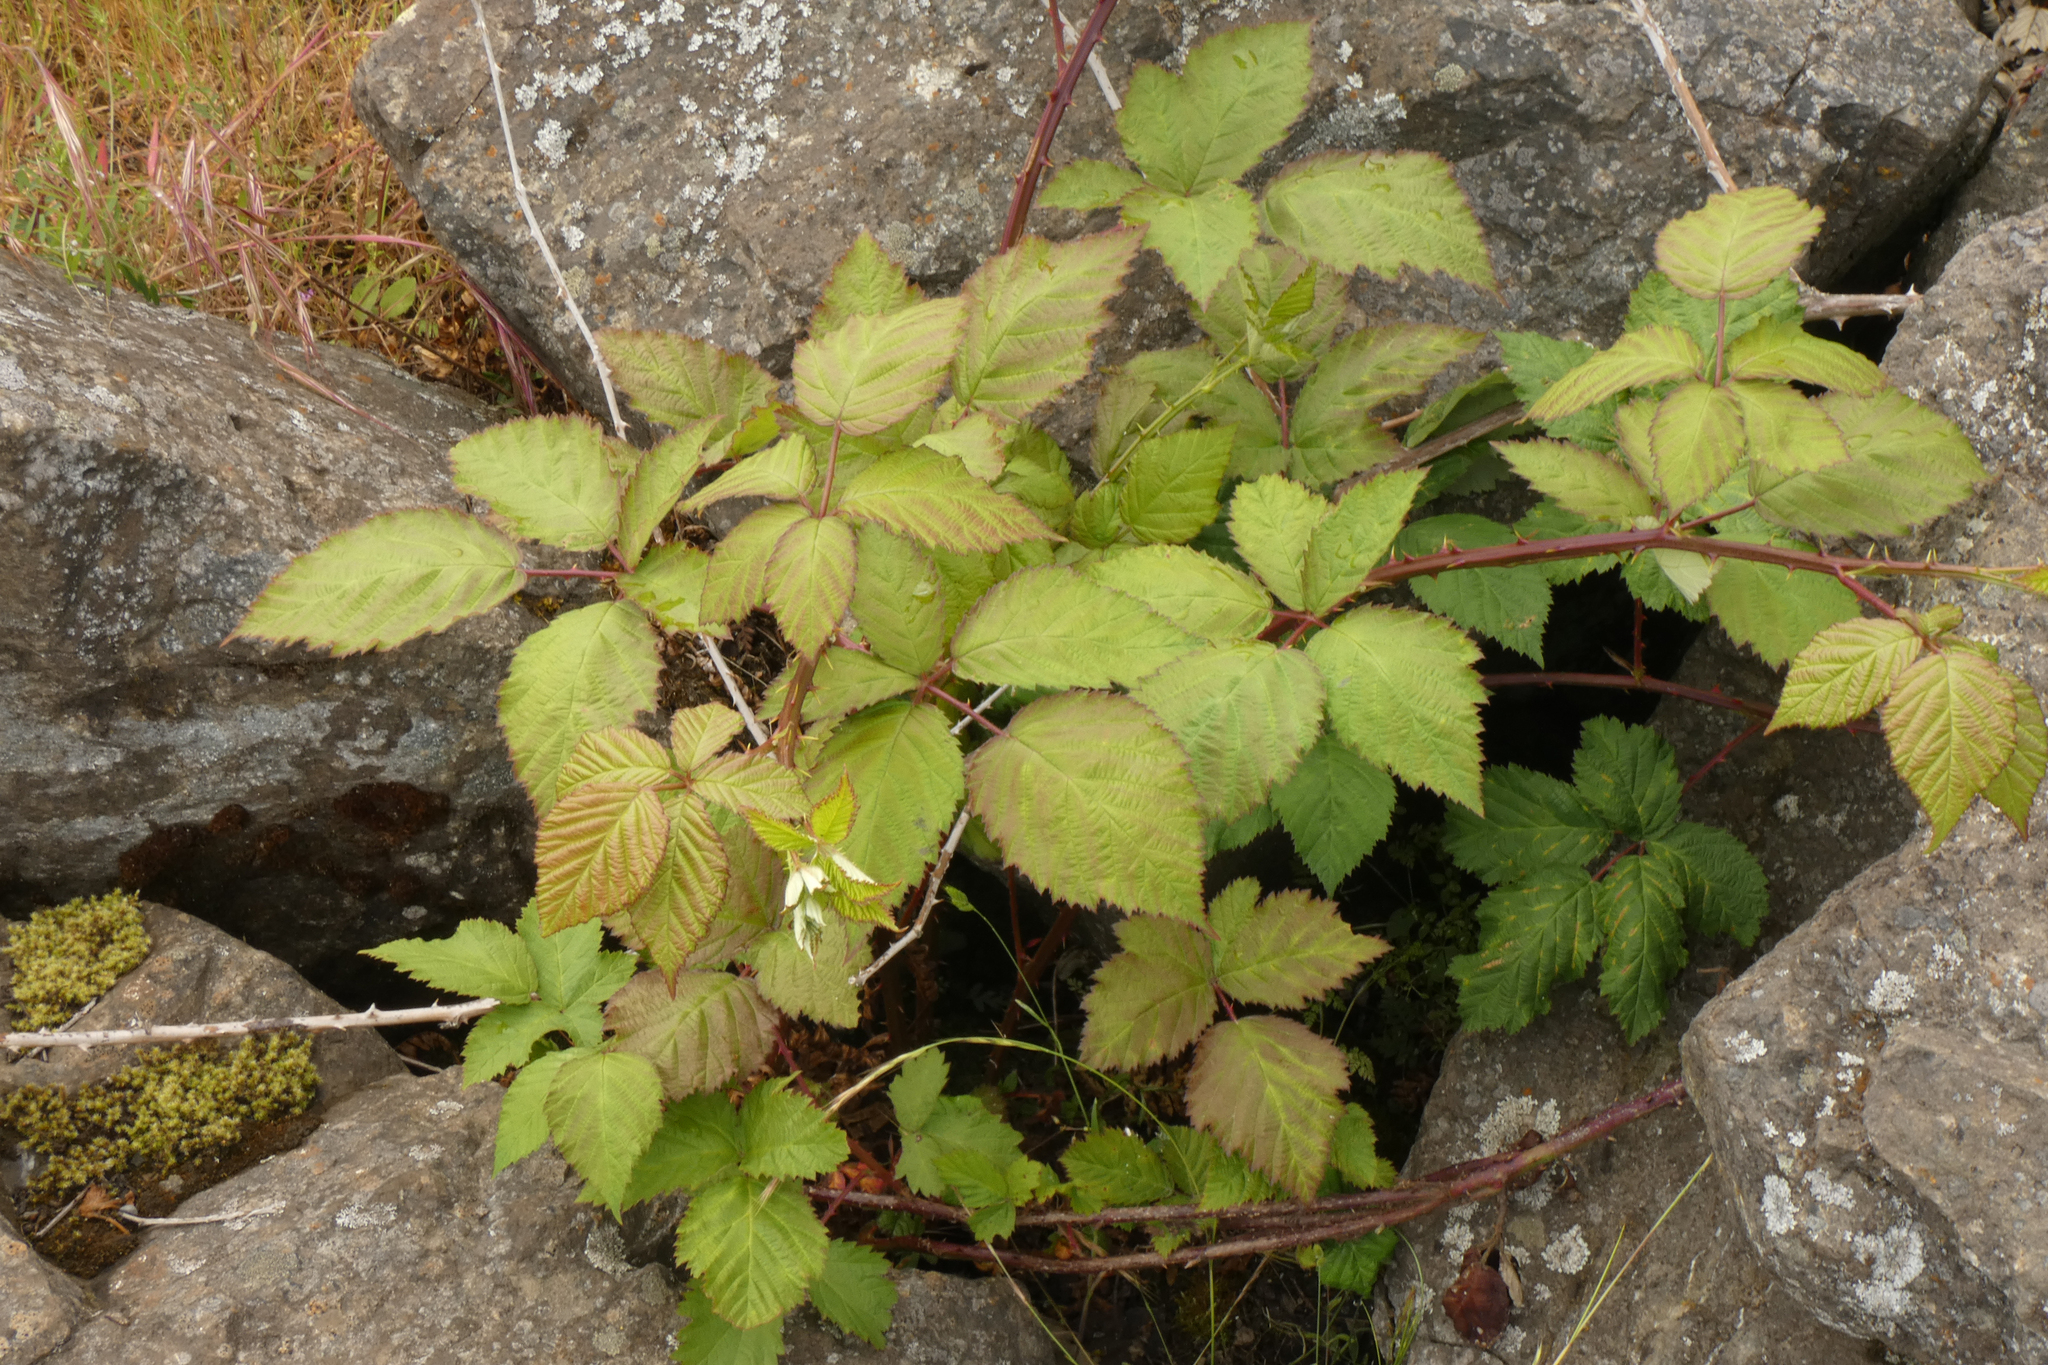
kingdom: Plantae
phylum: Tracheophyta
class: Magnoliopsida
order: Rosales
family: Rosaceae
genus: Rubus
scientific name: Rubus bifrons
